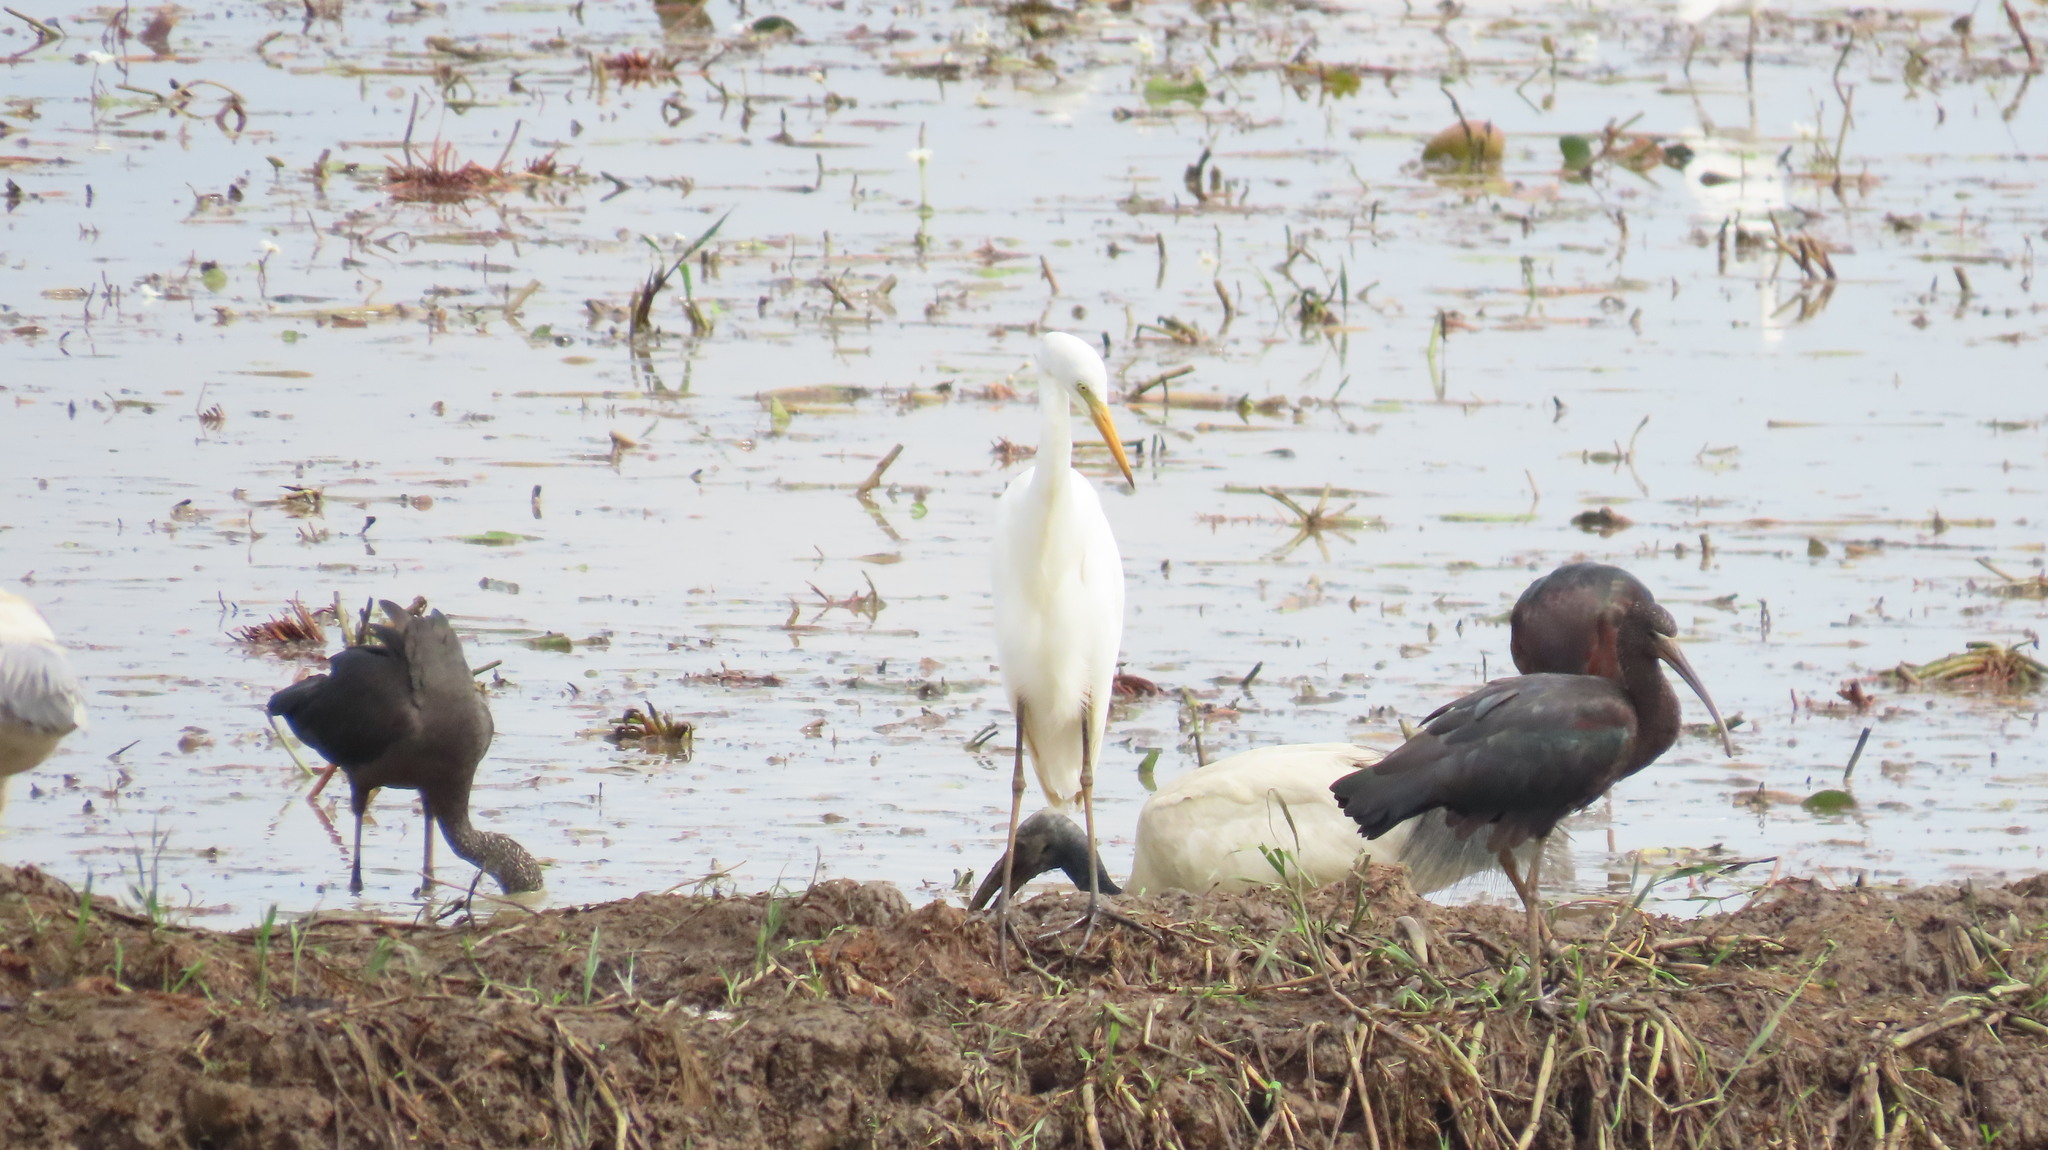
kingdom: Animalia
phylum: Chordata
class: Aves
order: Pelecaniformes
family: Ardeidae
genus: Egretta
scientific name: Egretta intermedia
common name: Intermediate egret
